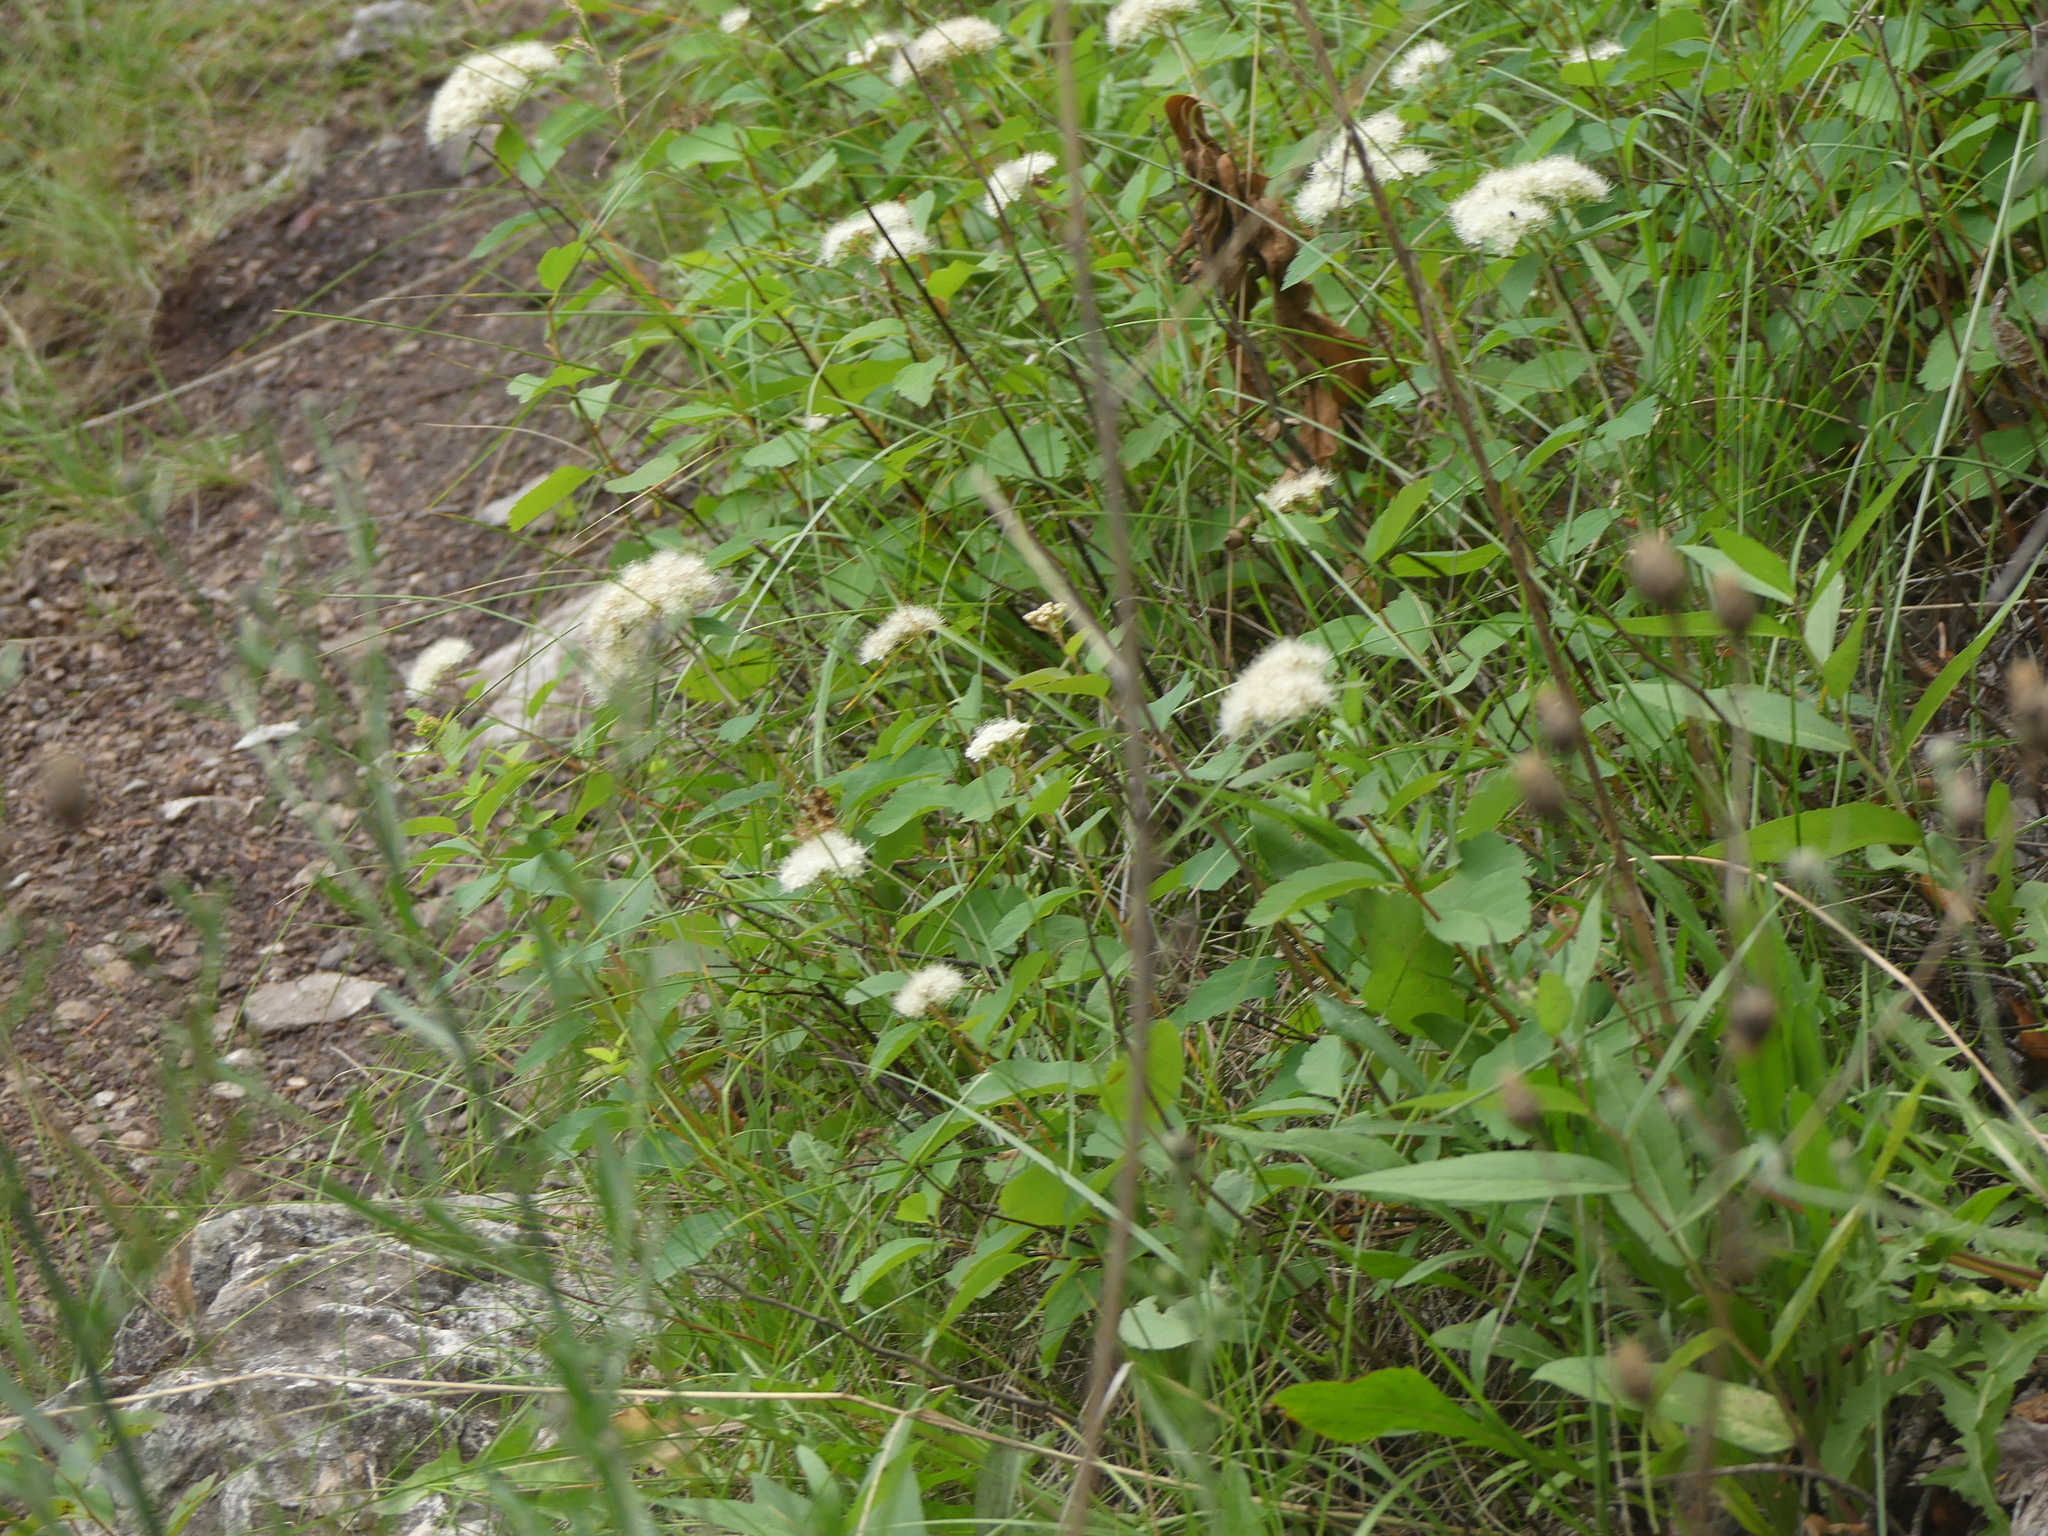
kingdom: Plantae
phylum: Tracheophyta
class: Magnoliopsida
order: Rosales
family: Rosaceae
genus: Spiraea
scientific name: Spiraea lucida
